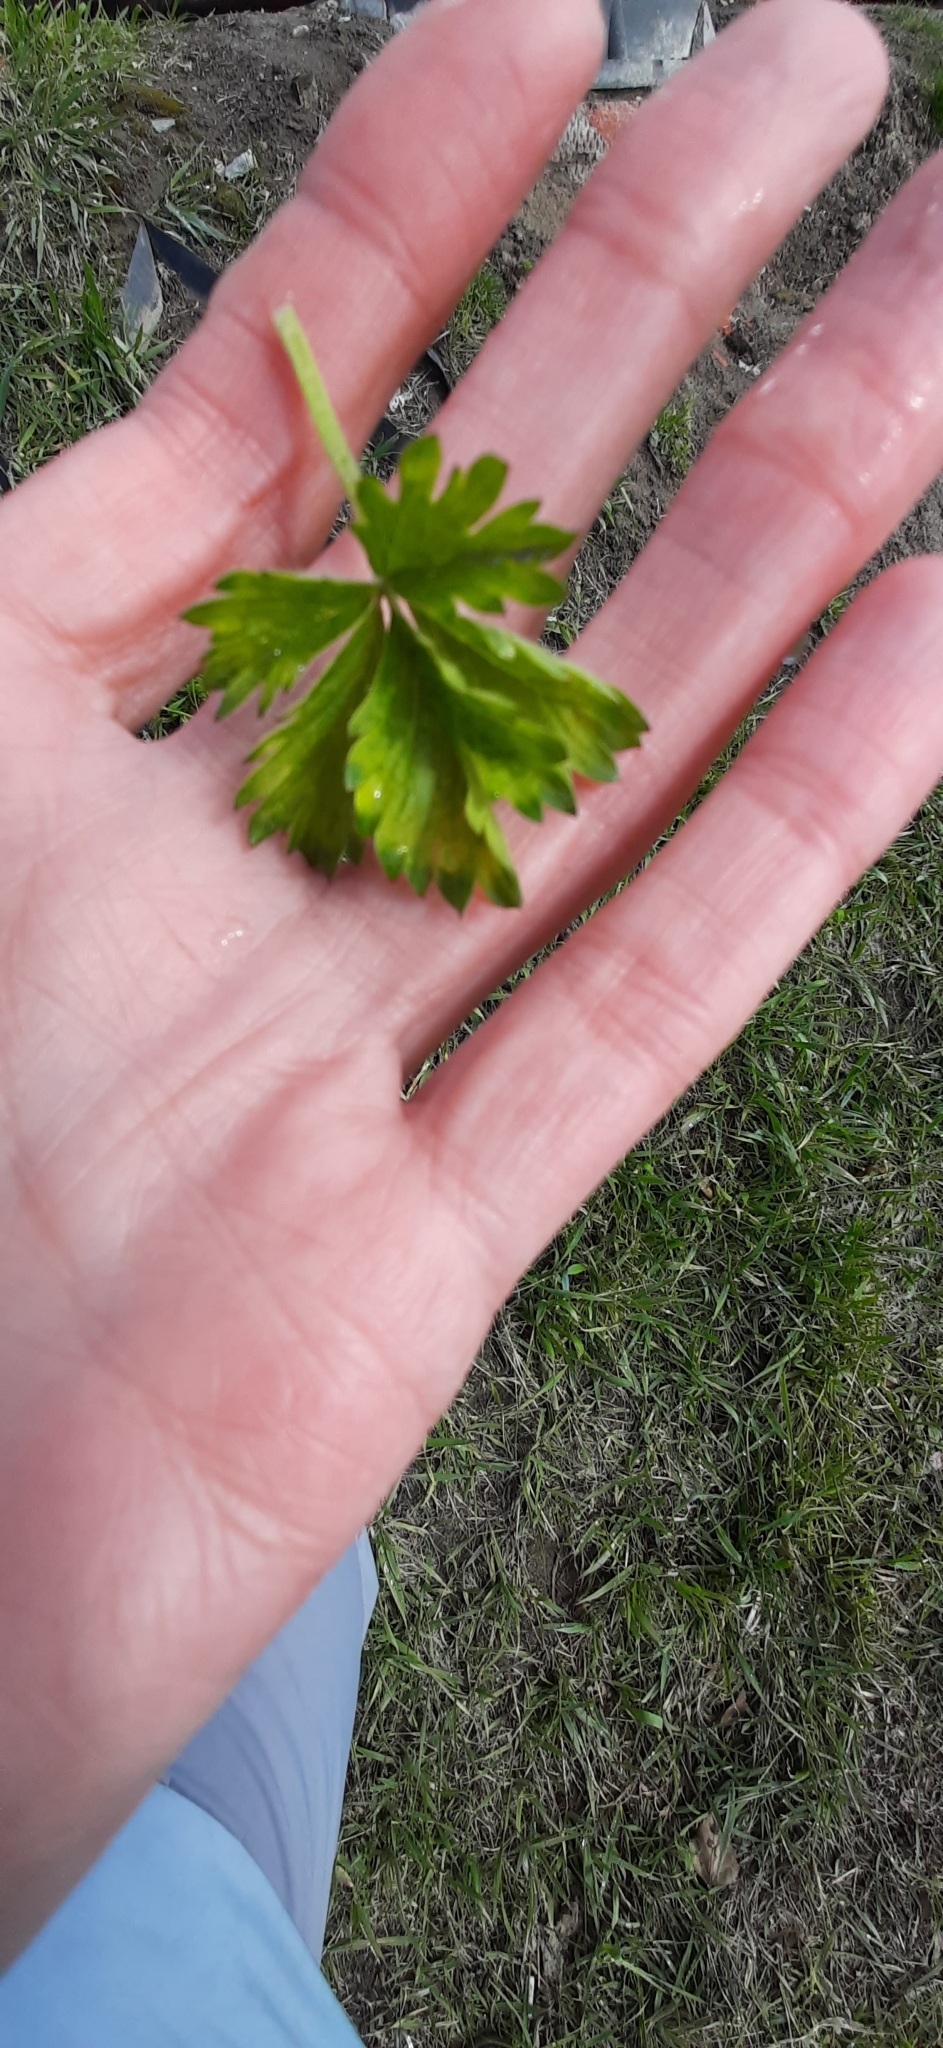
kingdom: Plantae
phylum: Tracheophyta
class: Magnoliopsida
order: Rosales
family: Rosaceae
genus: Potentilla
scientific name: Potentilla intermedia
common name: Downy cinquefoil
